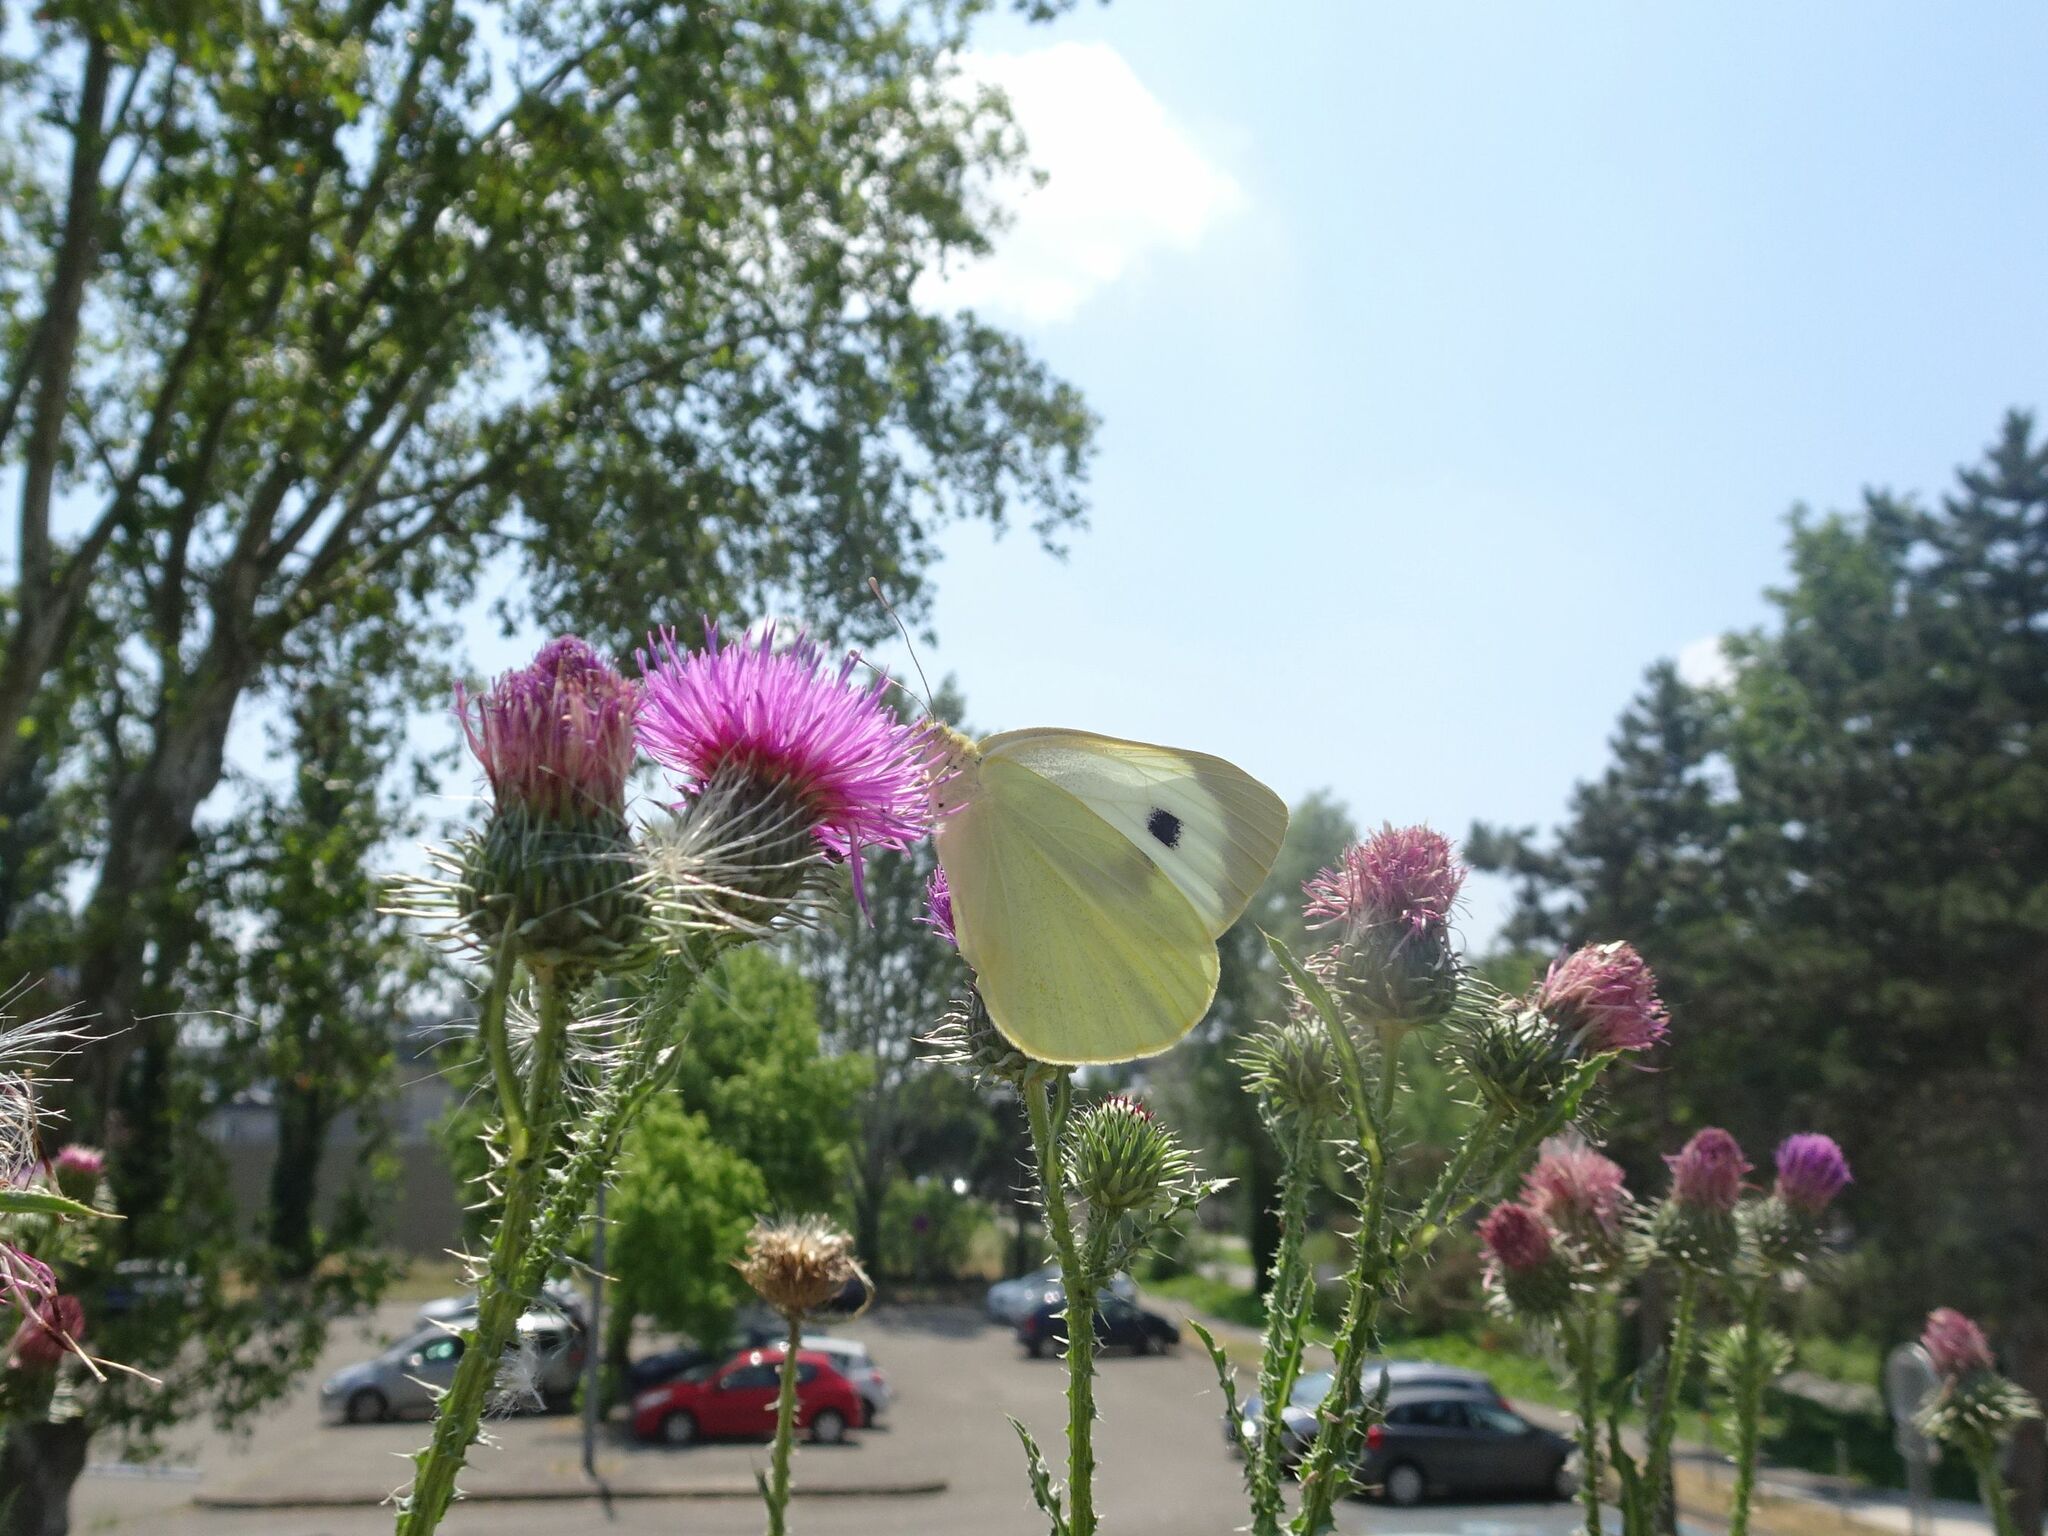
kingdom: Animalia
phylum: Arthropoda
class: Insecta
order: Lepidoptera
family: Pieridae
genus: Pieris
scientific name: Pieris brassicae
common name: Large white
